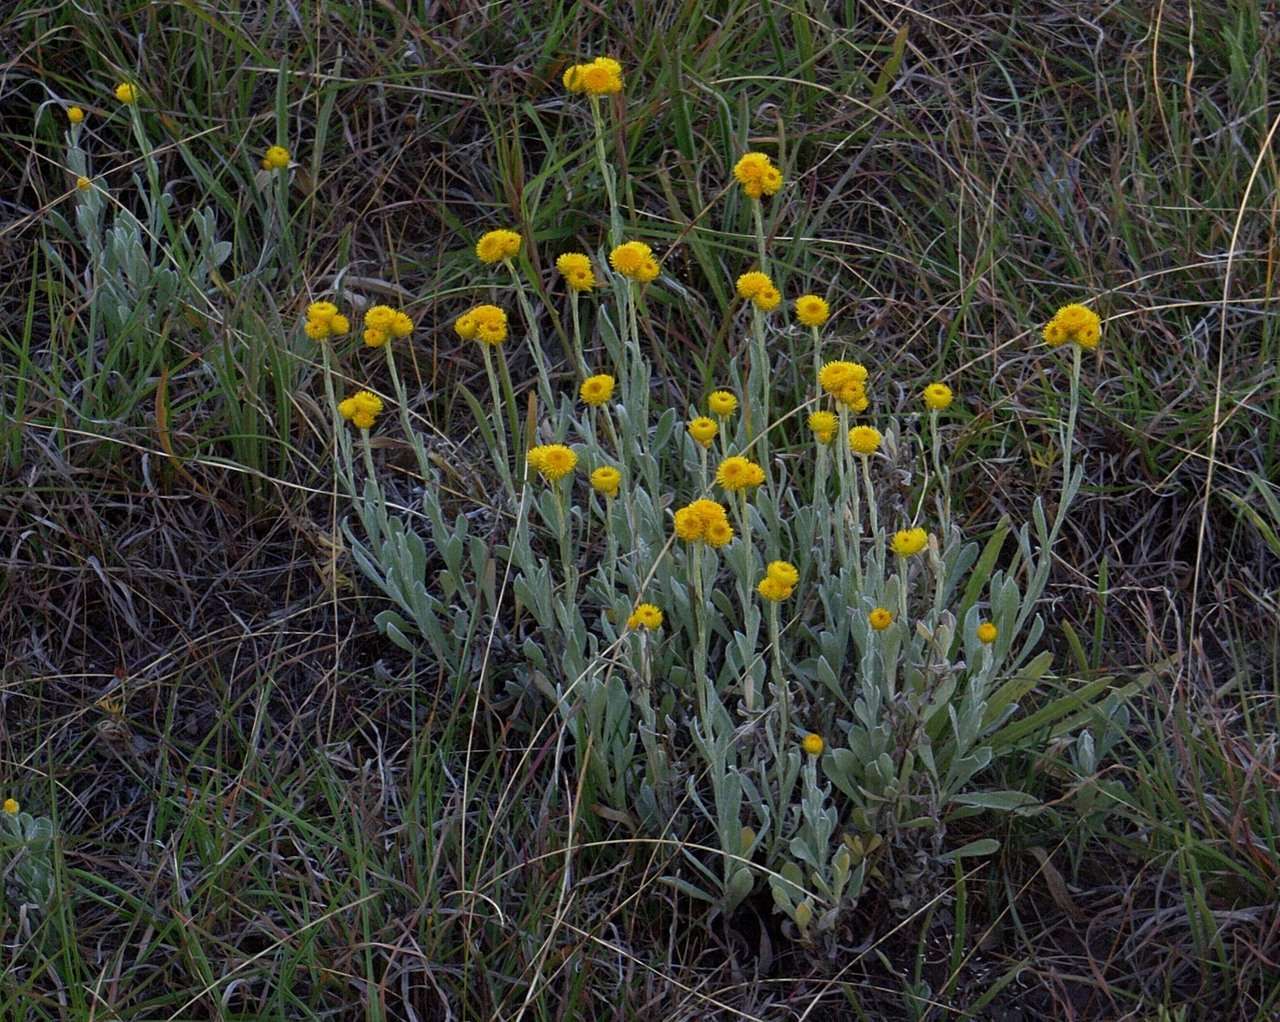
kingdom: Plantae
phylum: Tracheophyta
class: Magnoliopsida
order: Asterales
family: Asteraceae
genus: Chrysocephalum
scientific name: Chrysocephalum apiculatum
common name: Common everlasting
